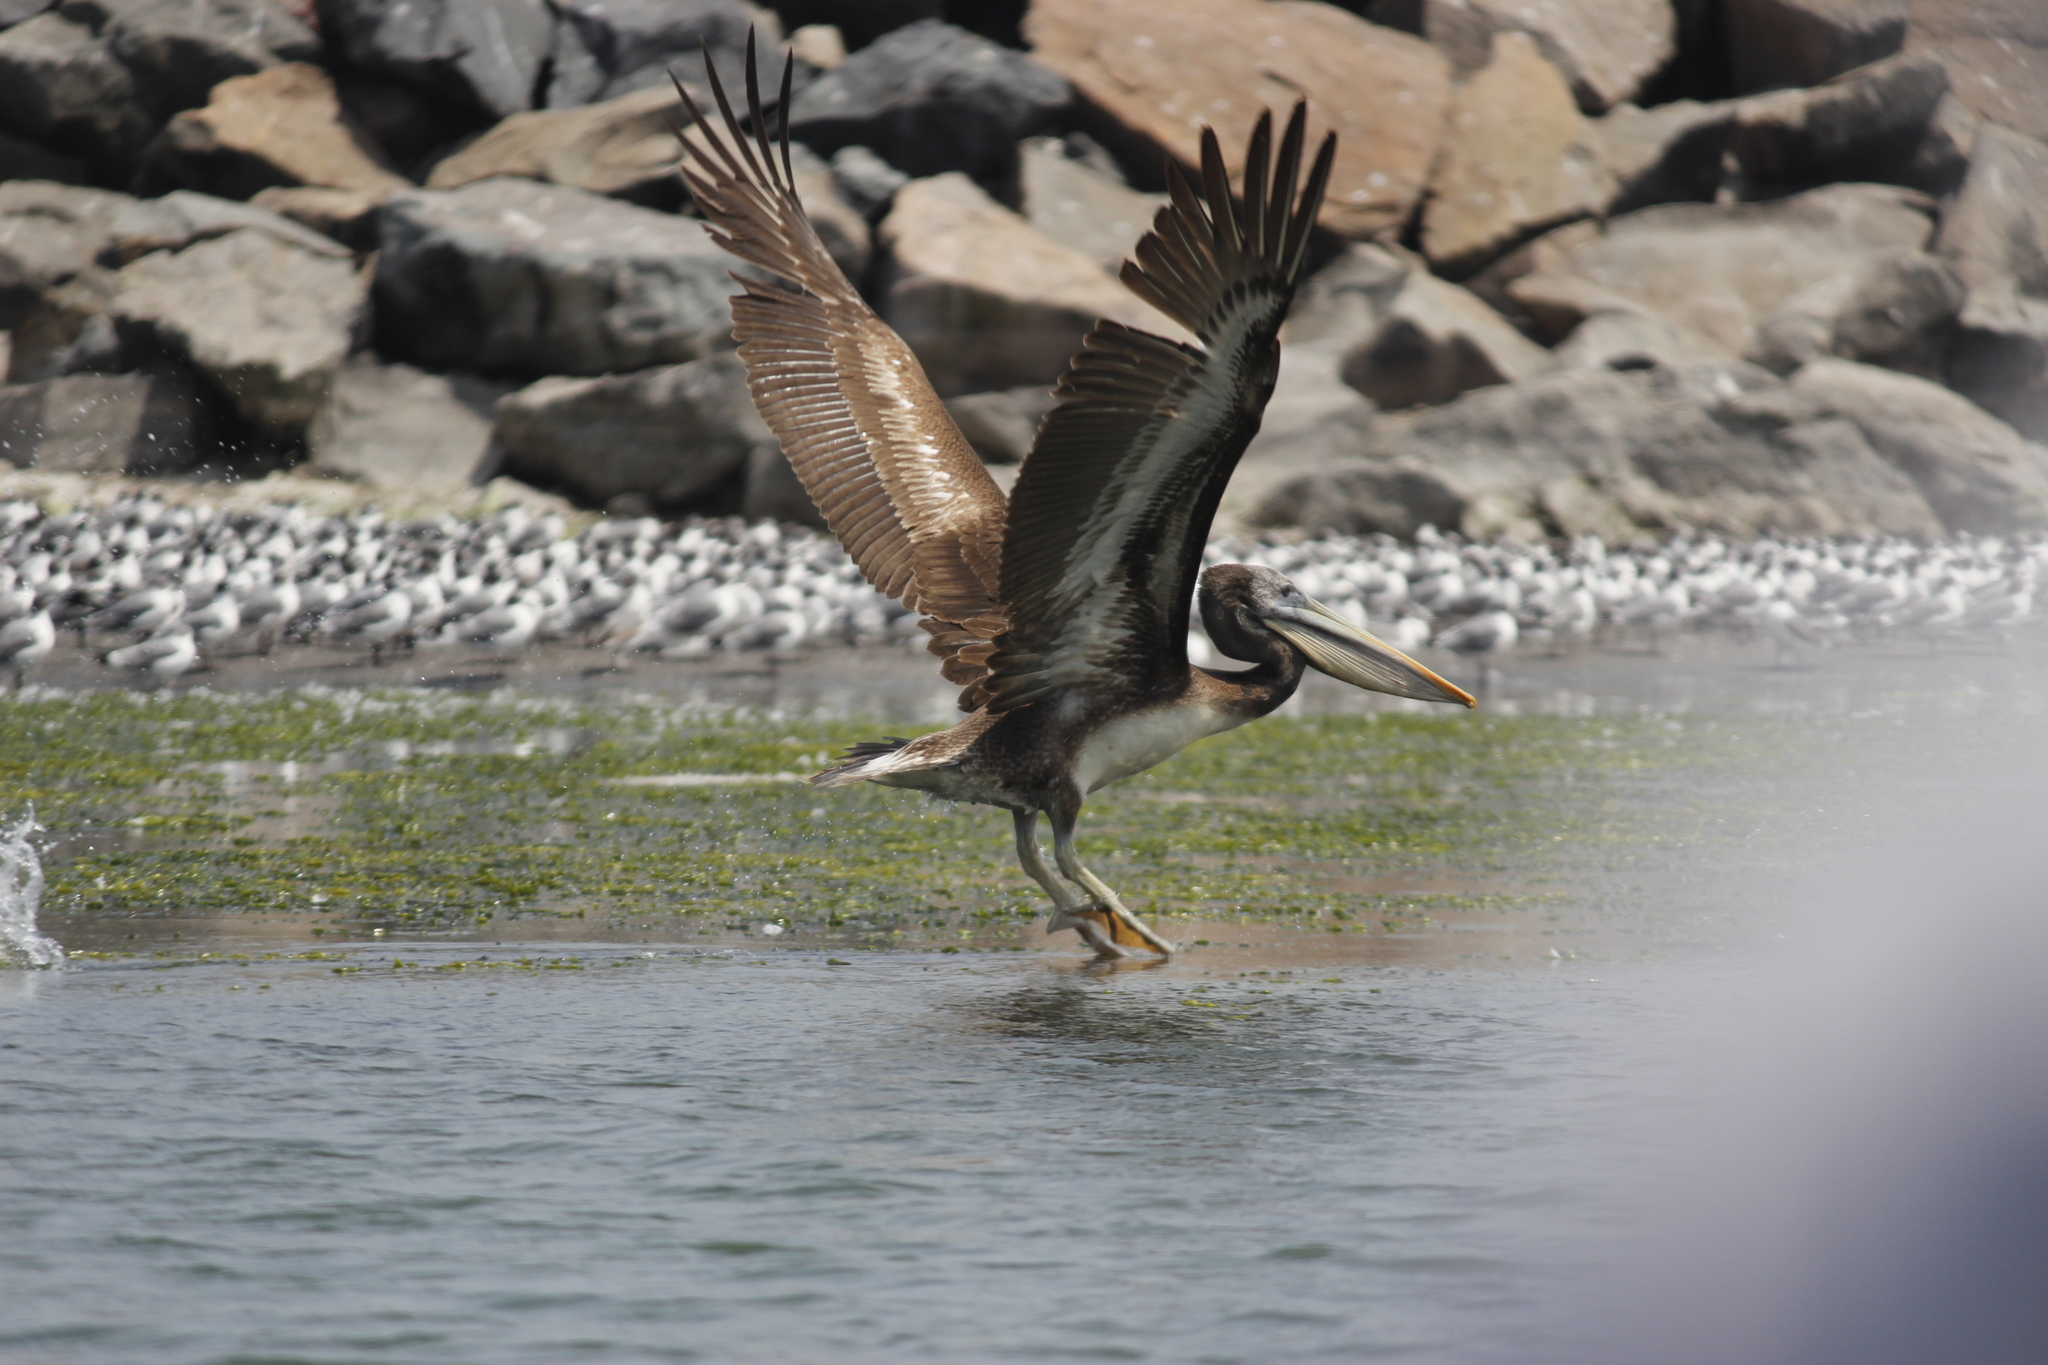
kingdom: Animalia
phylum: Chordata
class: Aves
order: Pelecaniformes
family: Pelecanidae
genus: Pelecanus
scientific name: Pelecanus thagus
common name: Peruvian pelican
